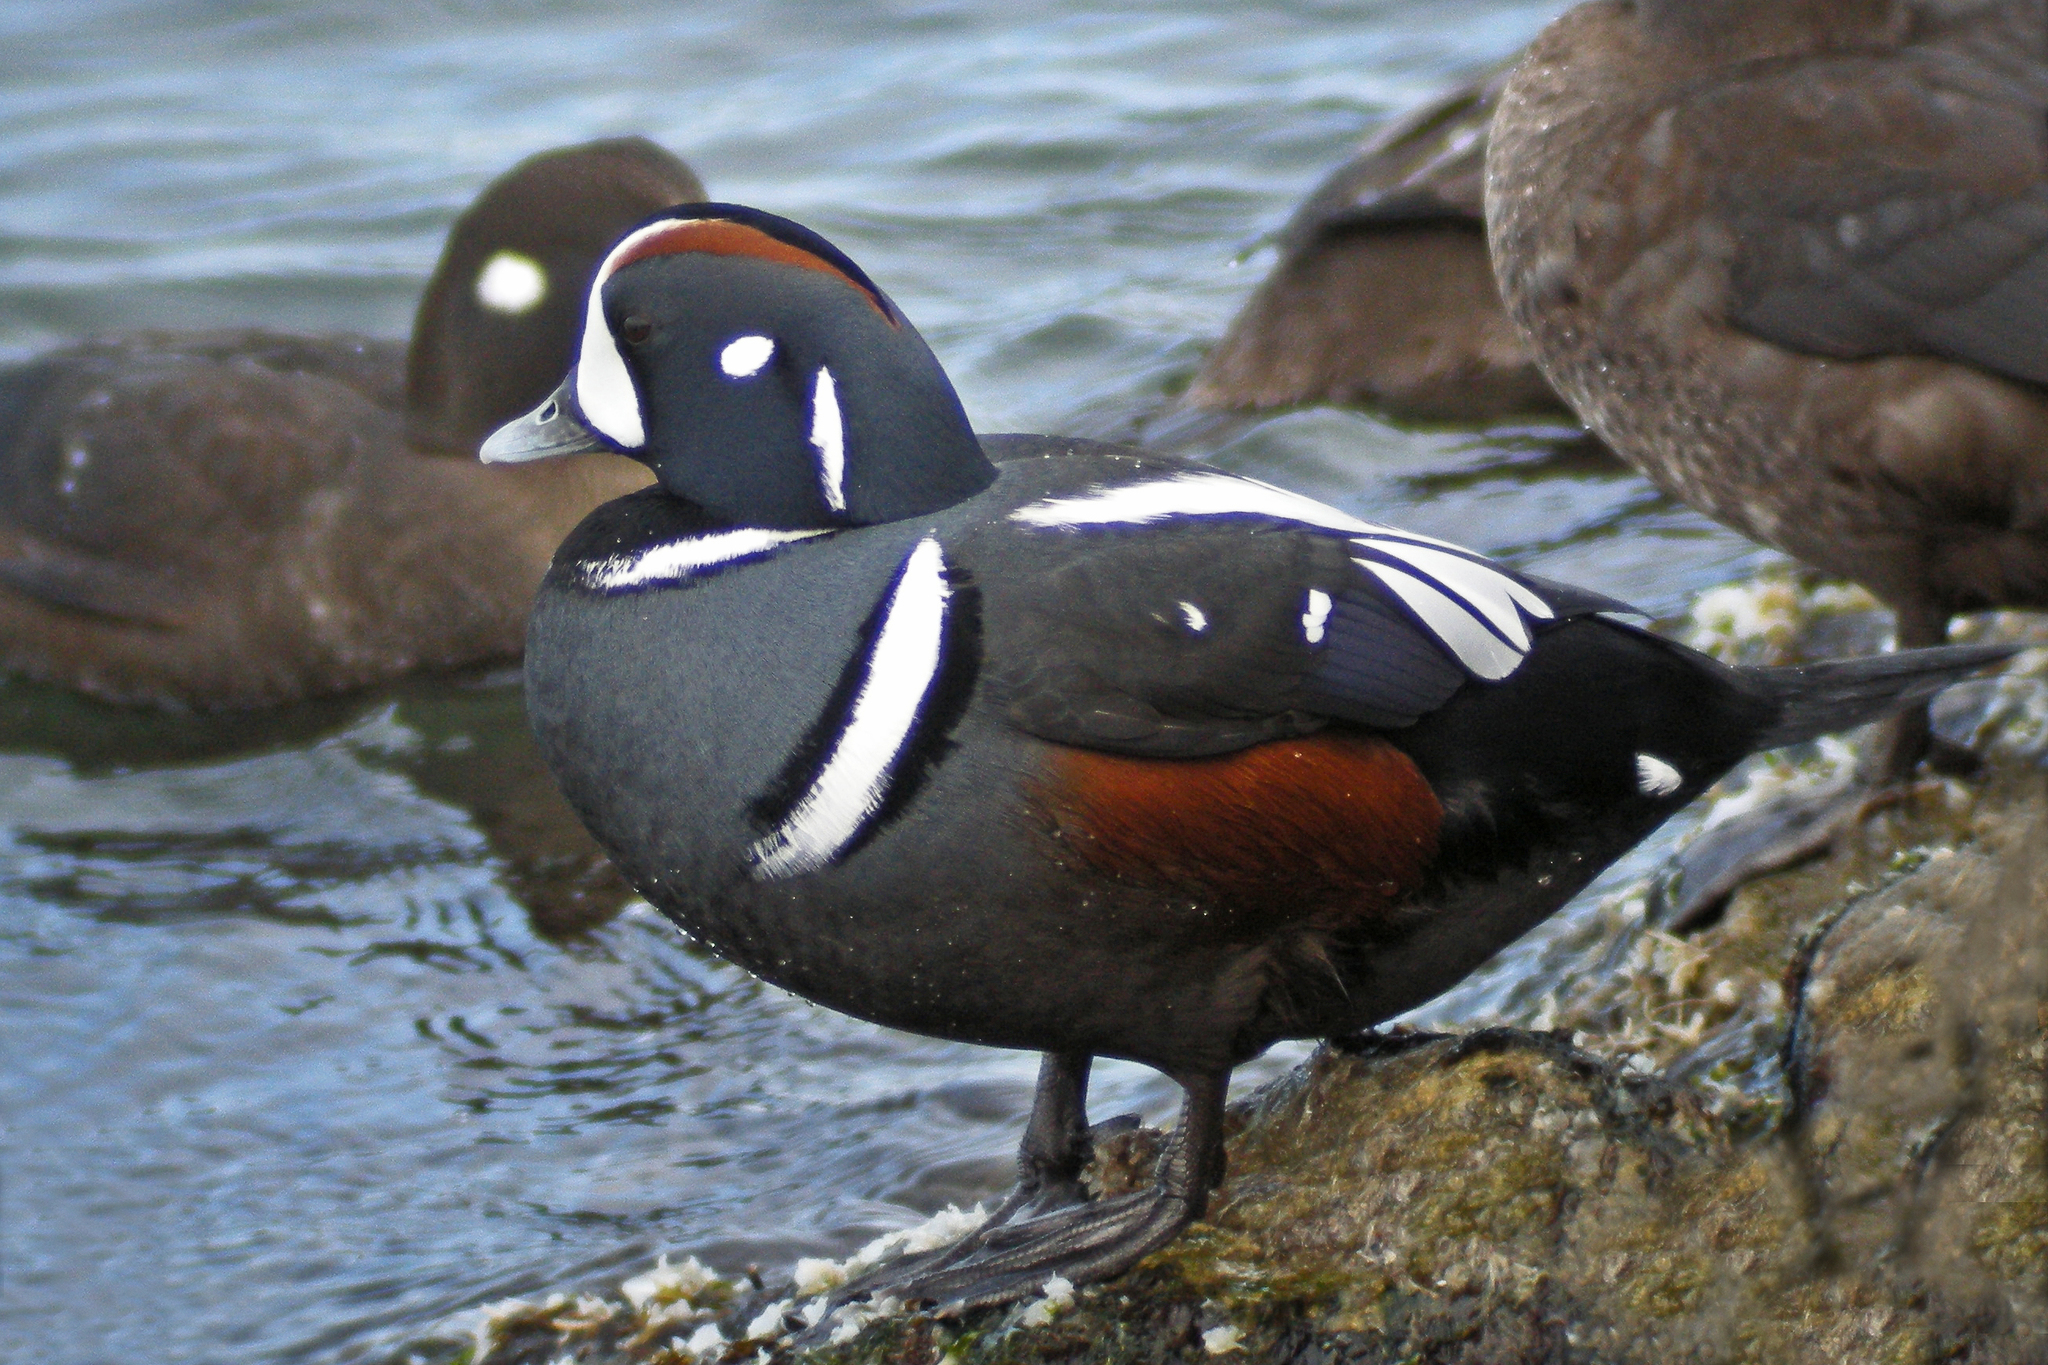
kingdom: Animalia
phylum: Chordata
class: Aves
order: Anseriformes
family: Anatidae
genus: Histrionicus
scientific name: Histrionicus histrionicus
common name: Harlequin duck
